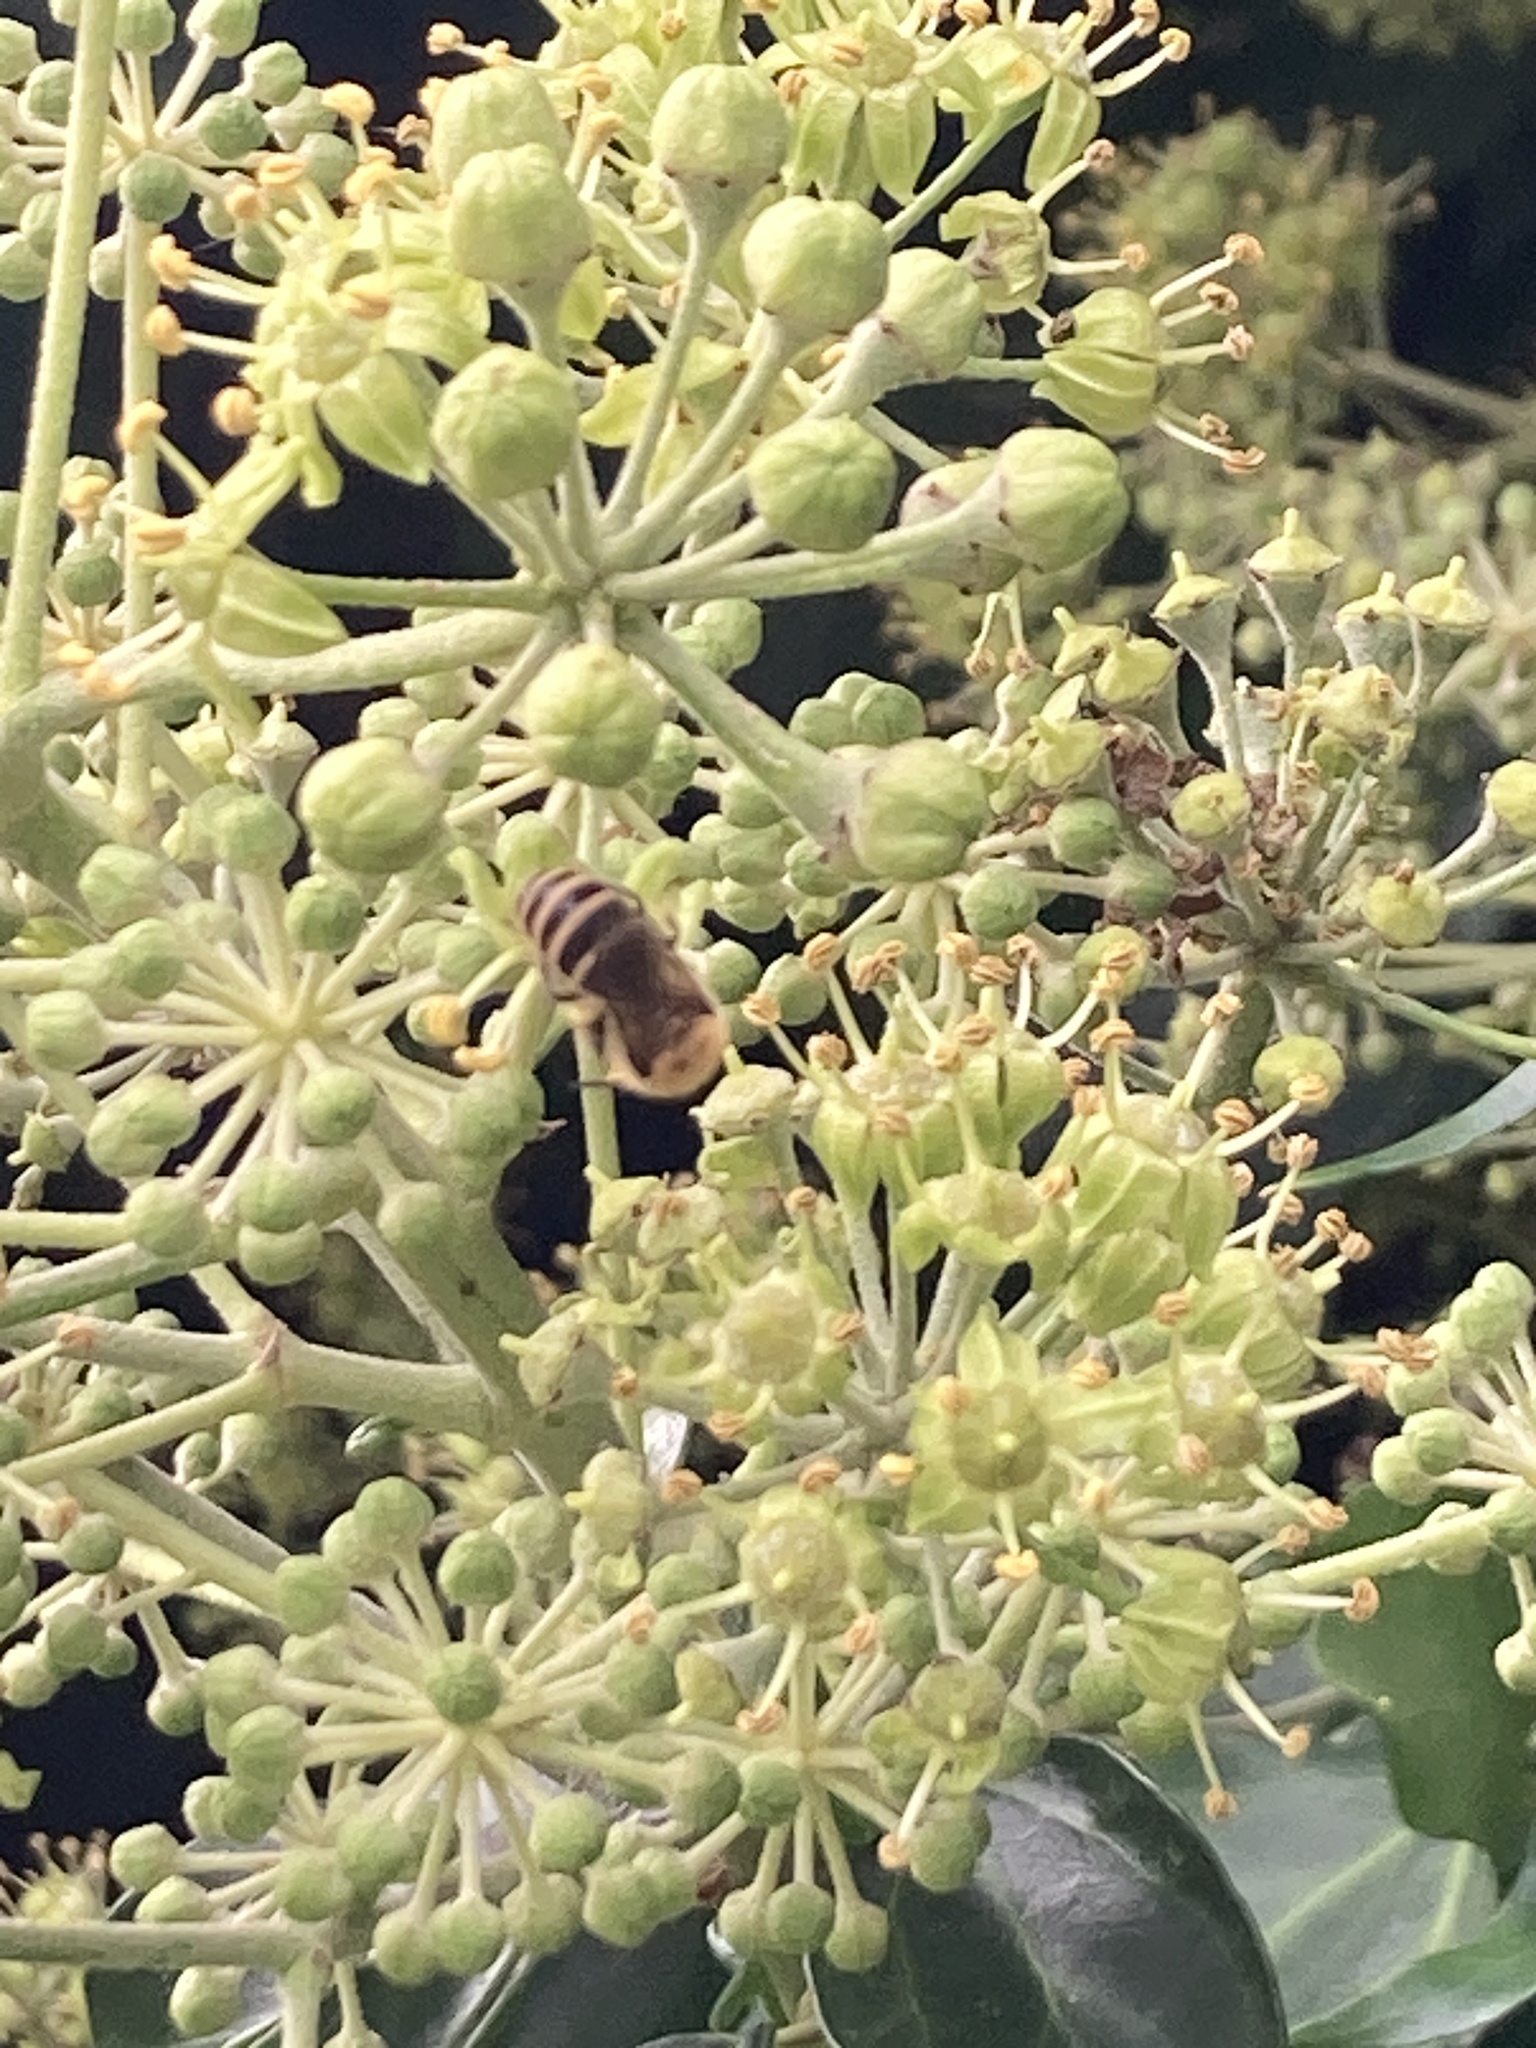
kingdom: Animalia
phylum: Arthropoda
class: Insecta
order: Hymenoptera
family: Colletidae
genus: Colletes
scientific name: Colletes hederae
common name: Ivy bee
